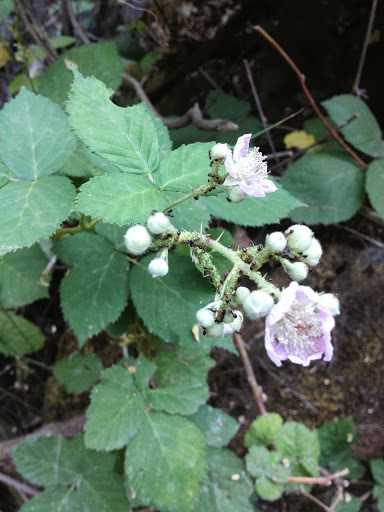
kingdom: Plantae
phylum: Tracheophyta
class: Magnoliopsida
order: Rosales
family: Rosaceae
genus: Rubus
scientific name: Rubus armeniacus
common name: Himalayan blackberry
